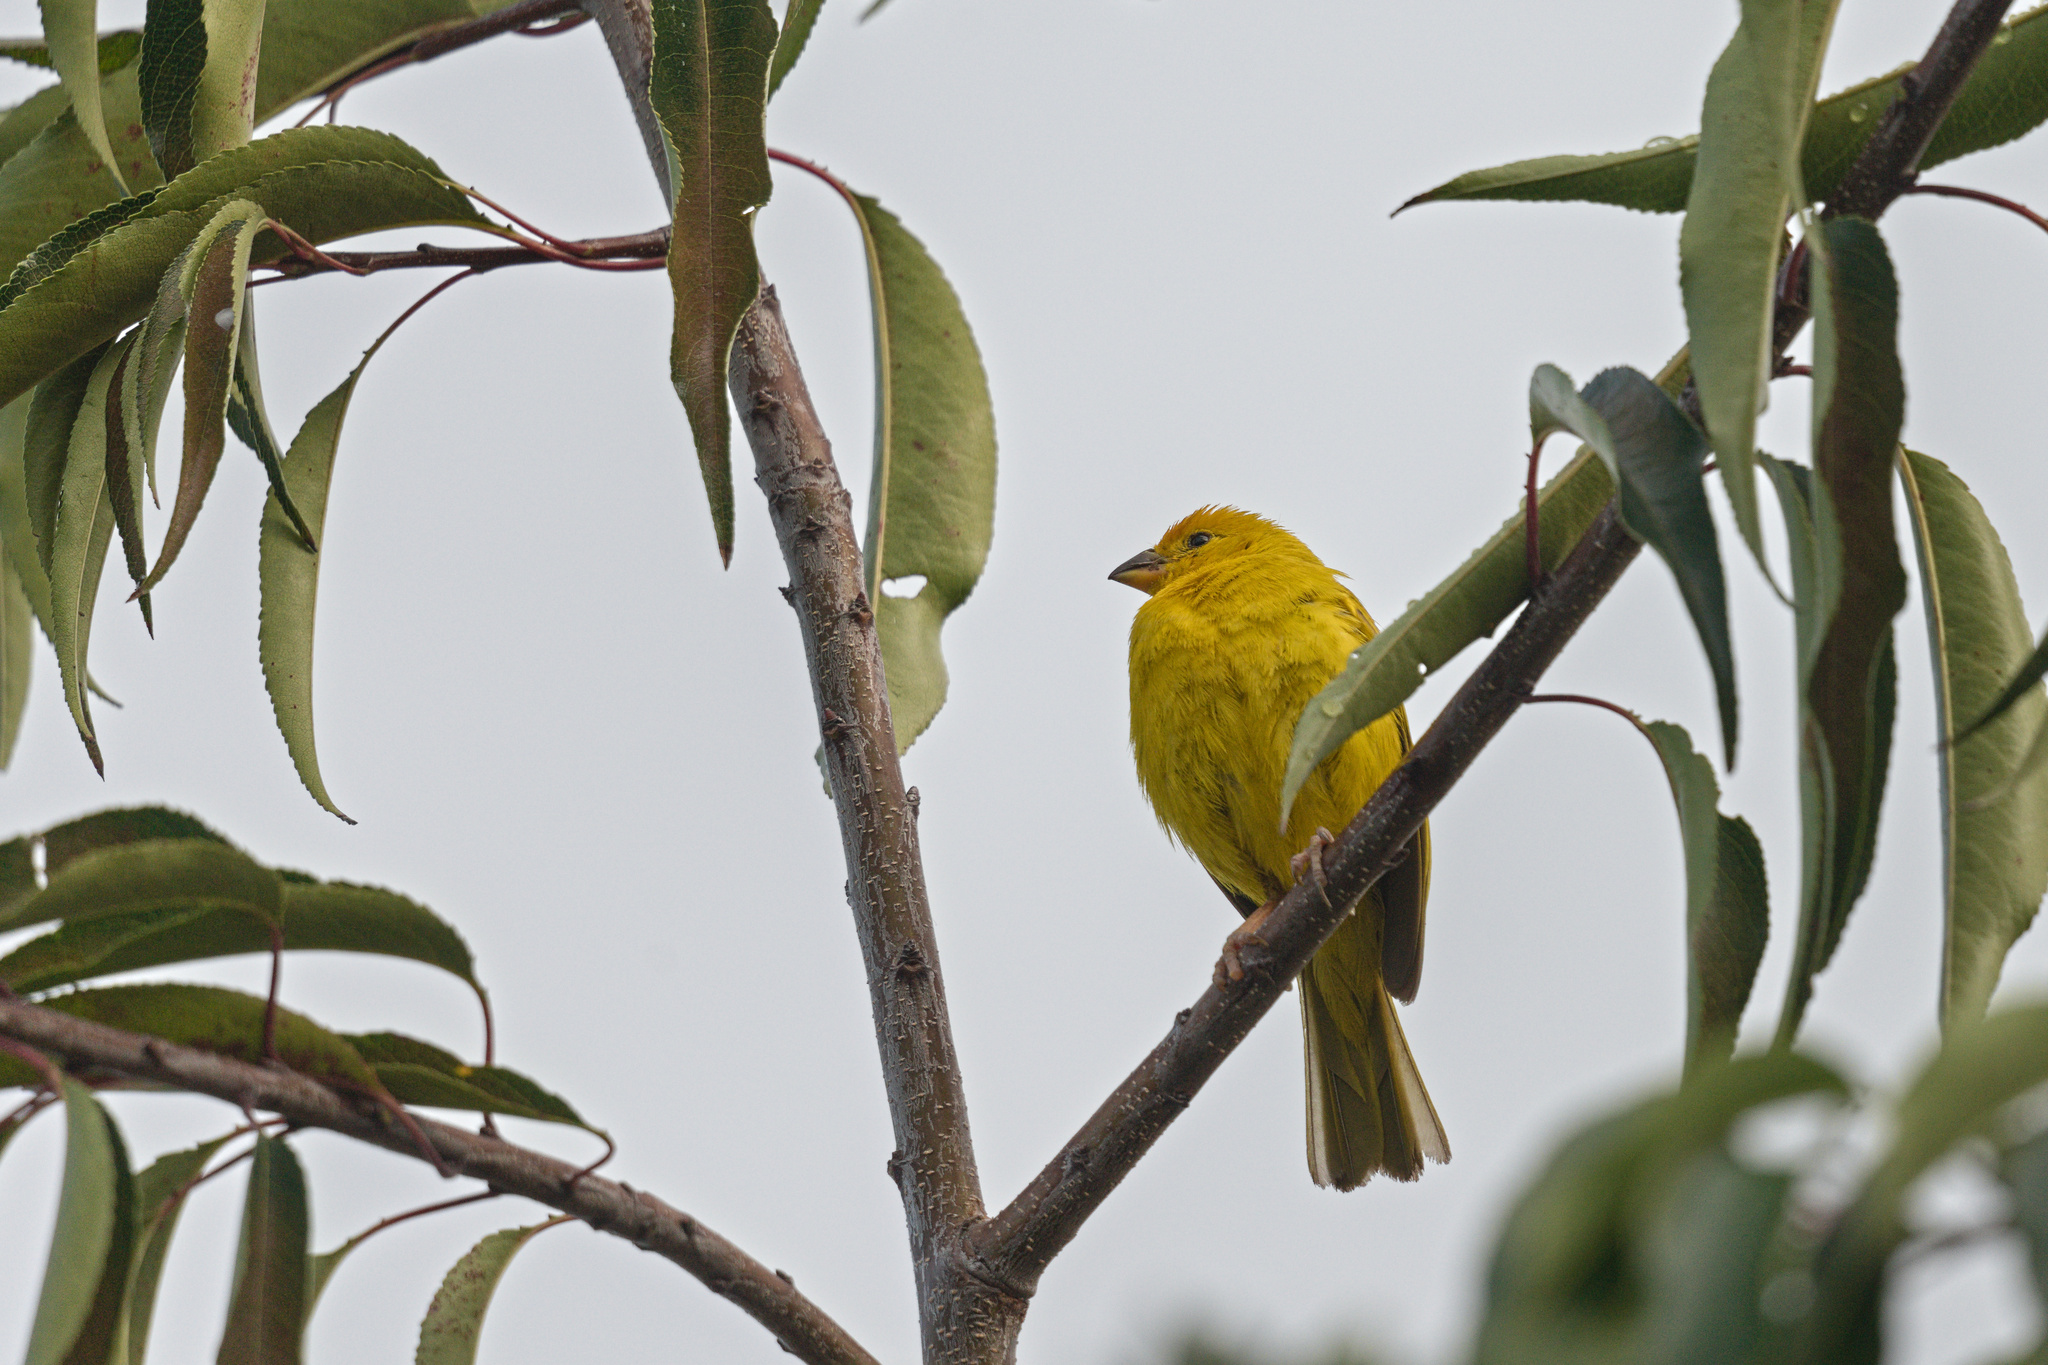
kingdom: Animalia
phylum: Chordata
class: Aves
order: Passeriformes
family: Thraupidae
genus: Sicalis
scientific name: Sicalis flaveola
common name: Saffron finch
